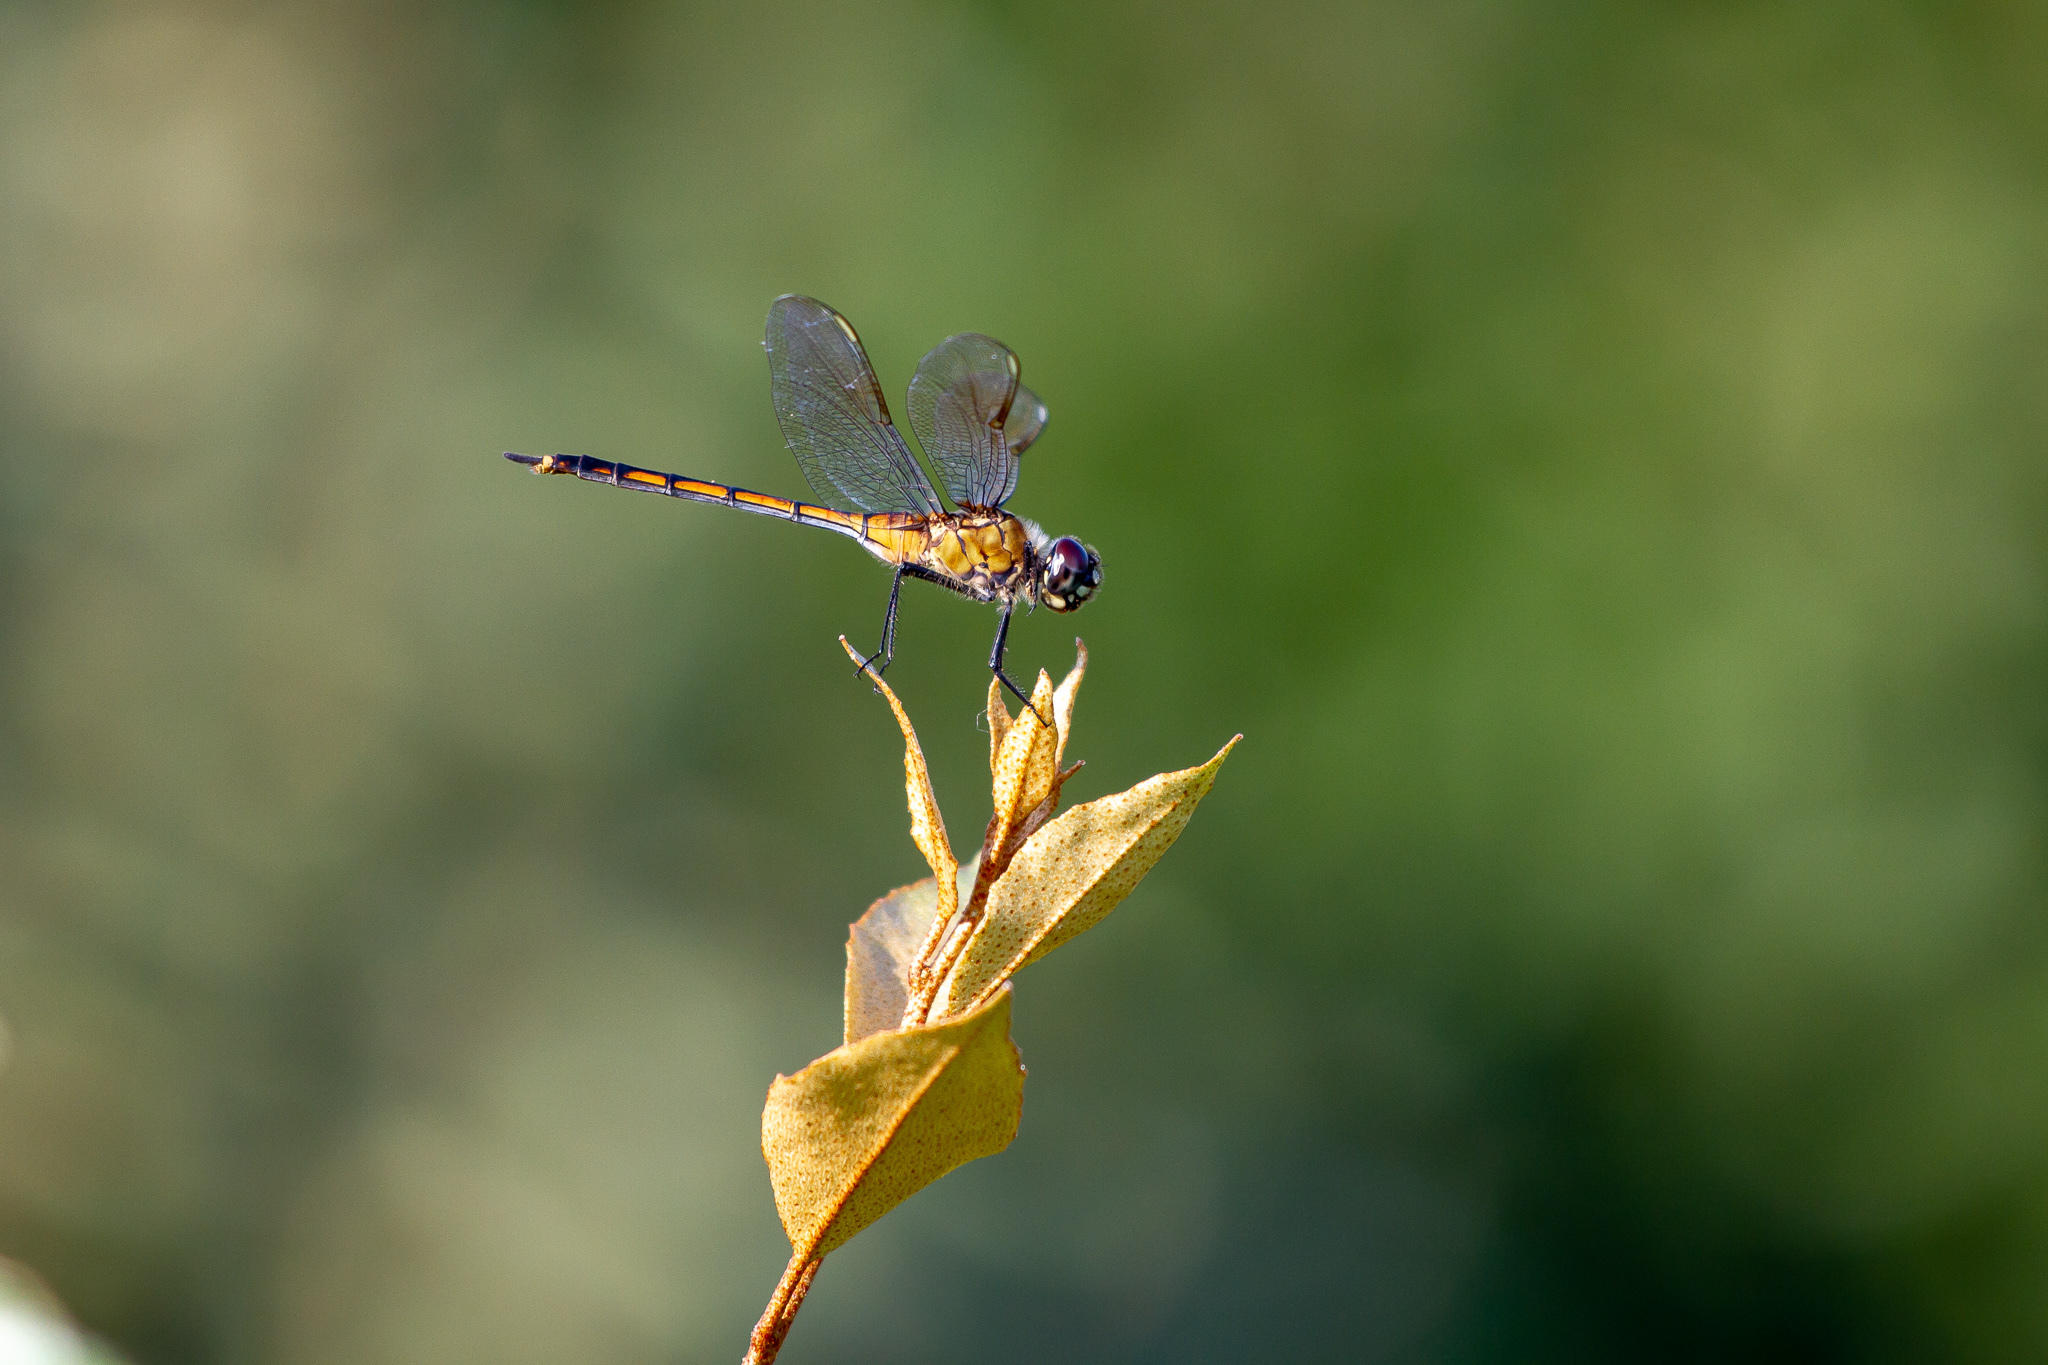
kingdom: Animalia
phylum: Arthropoda
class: Insecta
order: Odonata
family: Libellulidae
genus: Brachymesia
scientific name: Brachymesia gravida
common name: Four-spotted pennant
